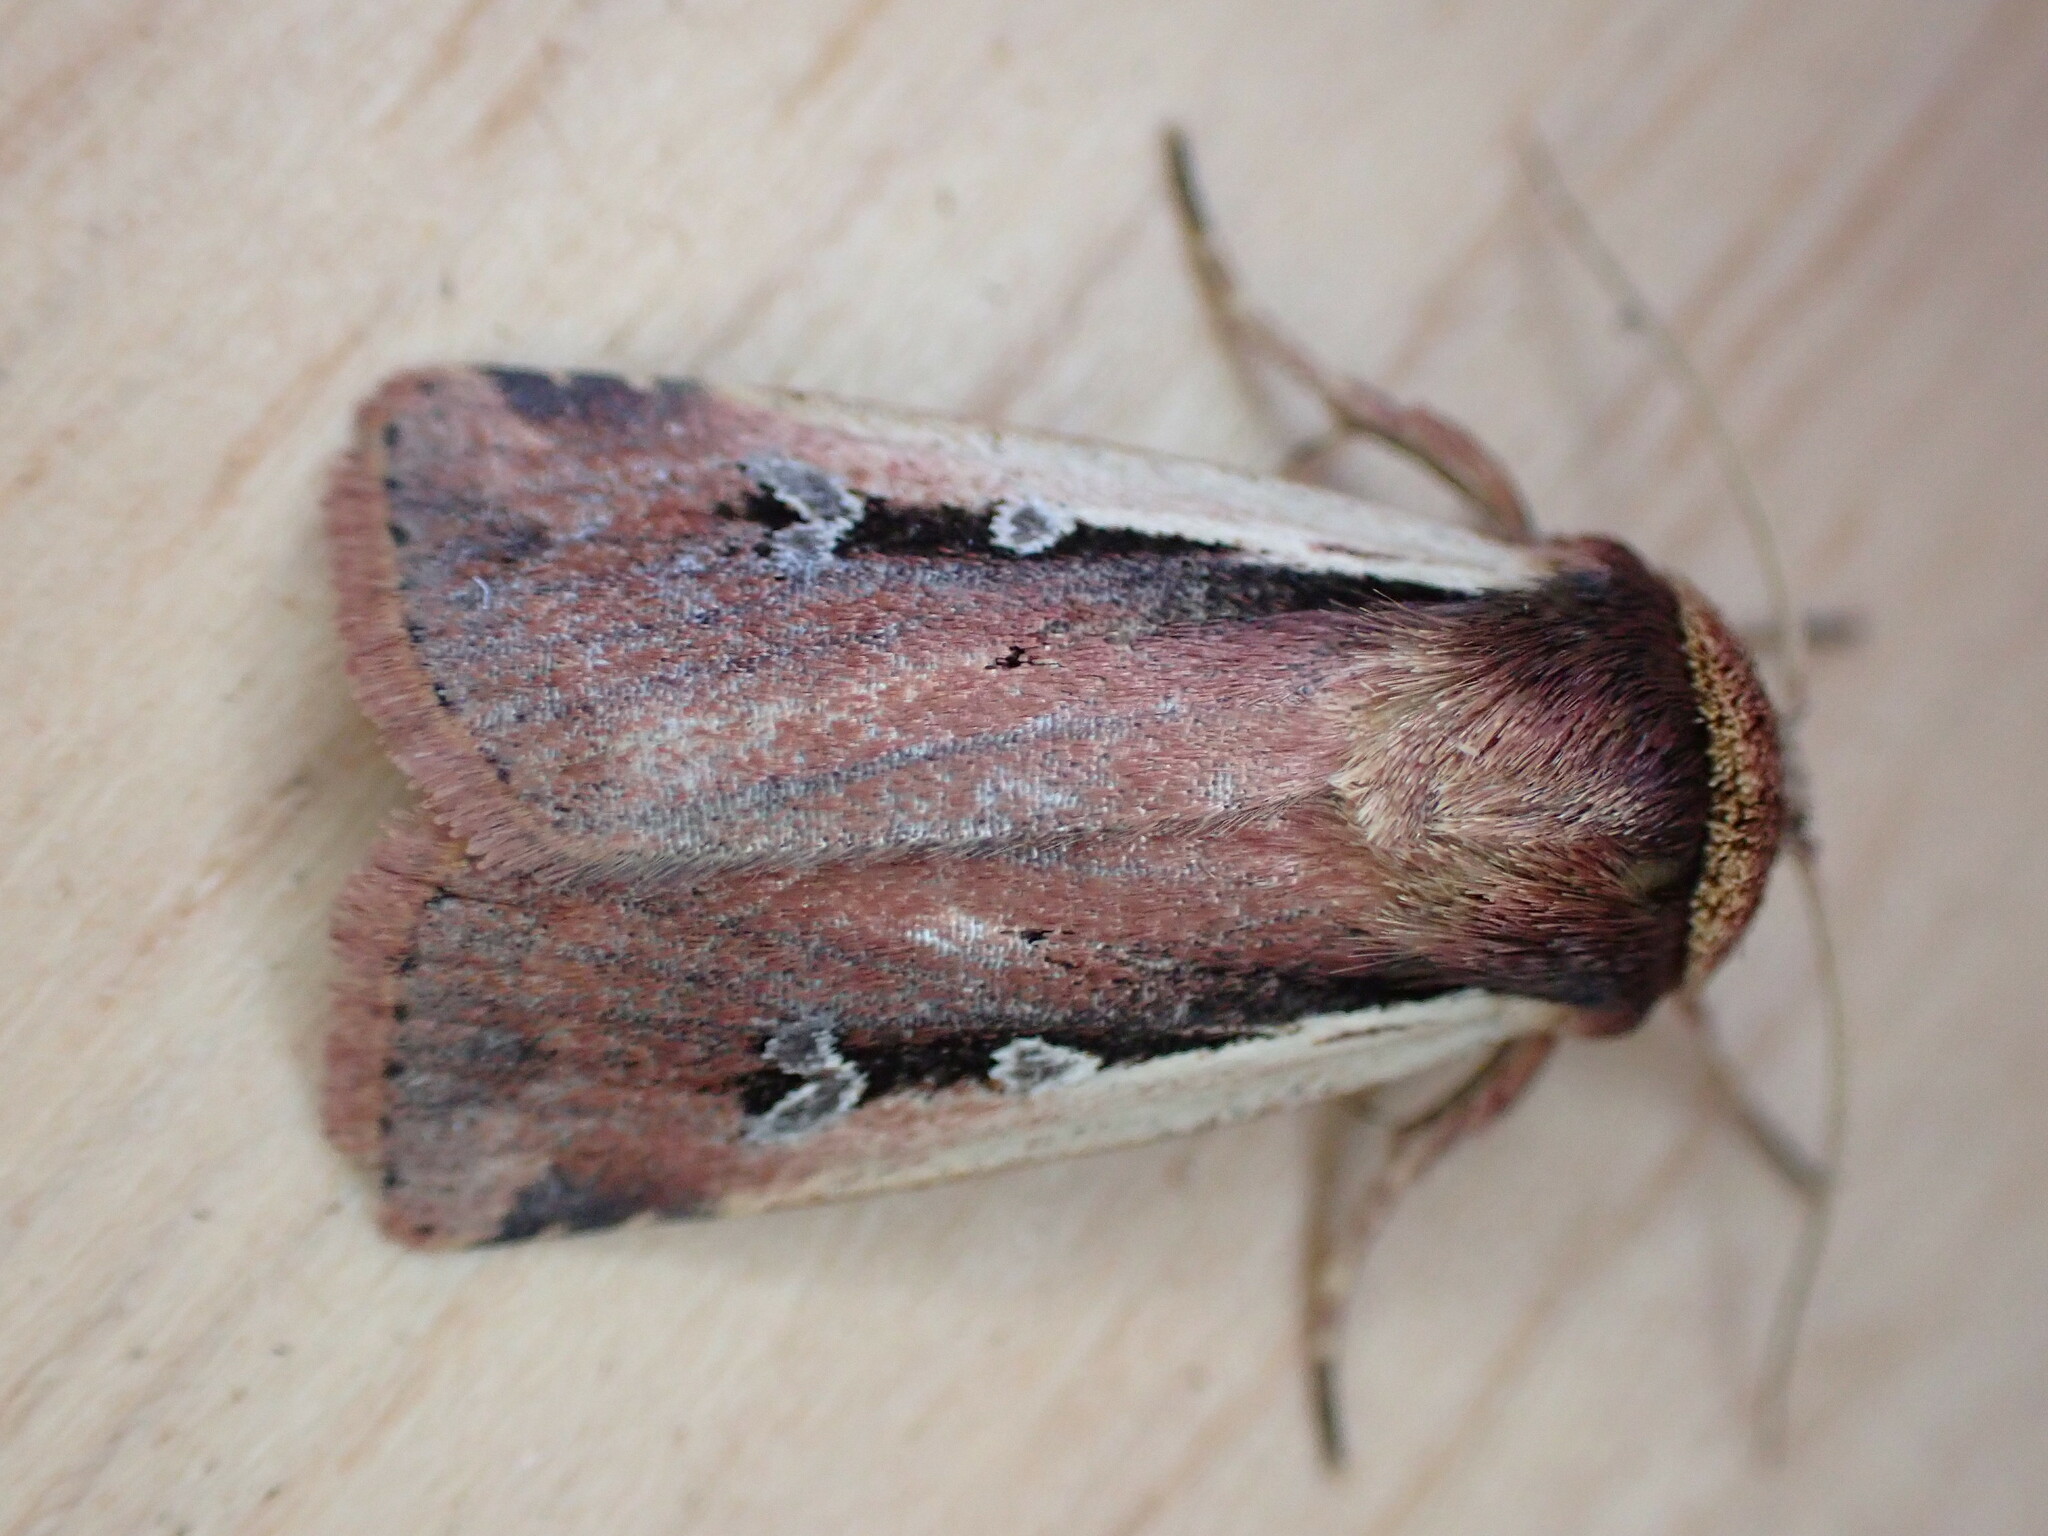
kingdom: Animalia
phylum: Arthropoda
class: Insecta
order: Lepidoptera
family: Noctuidae
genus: Ochropleura
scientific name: Ochropleura plecta
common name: Flame shoulder
